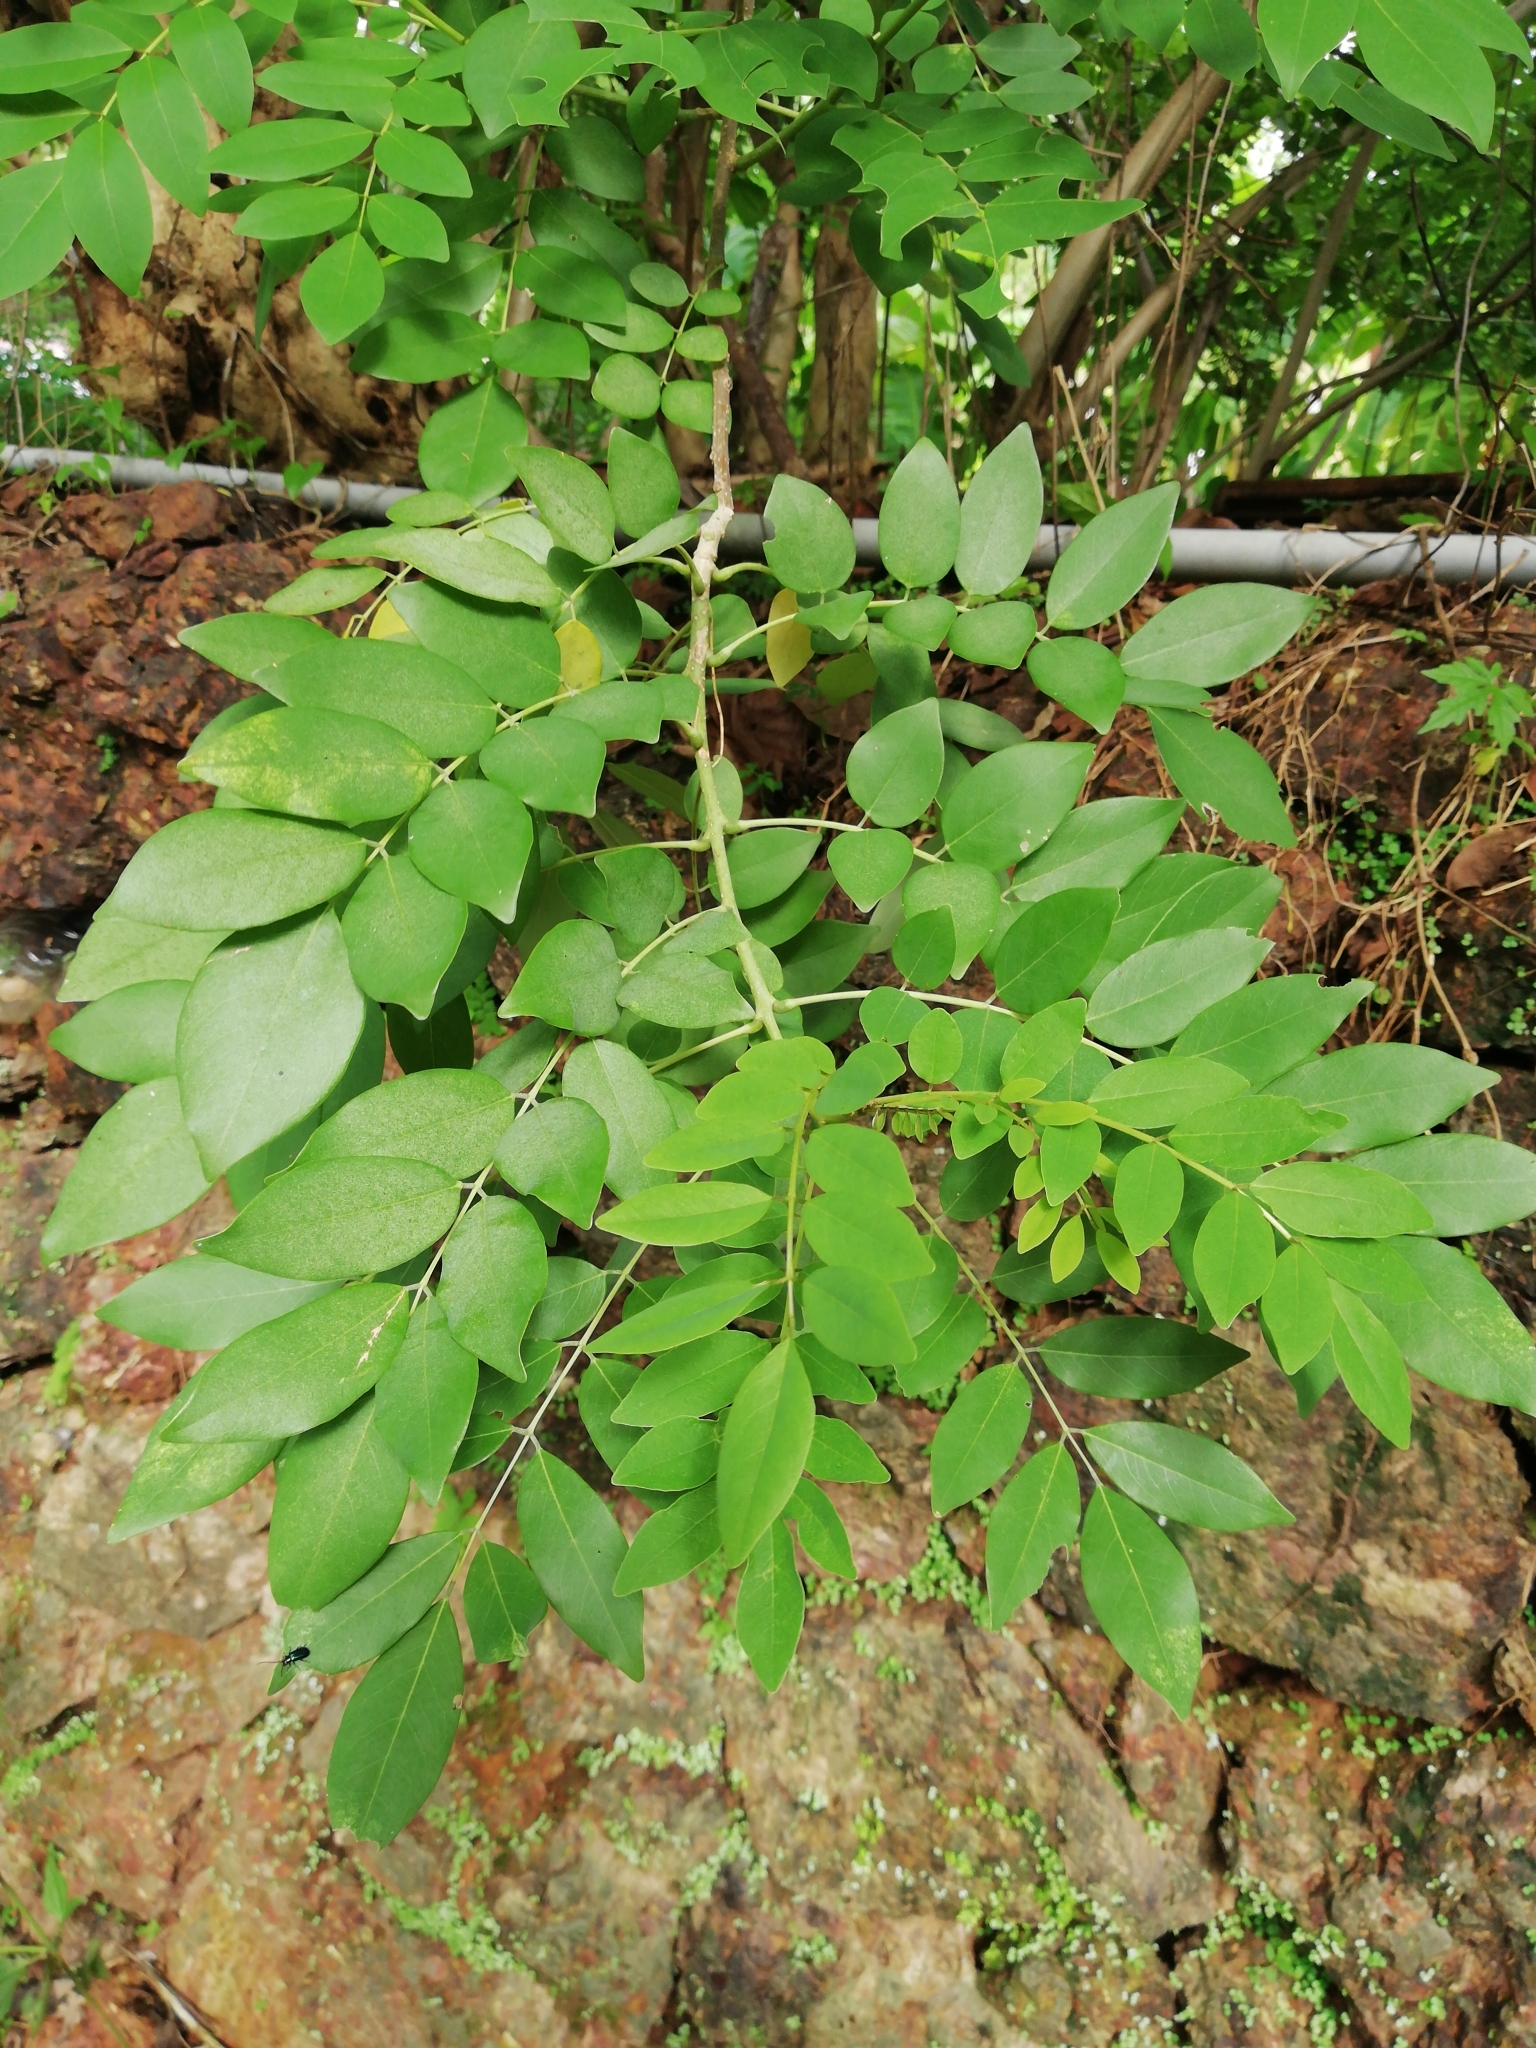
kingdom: Plantae
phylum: Tracheophyta
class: Magnoliopsida
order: Fabales
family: Fabaceae
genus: Gliricidia
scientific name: Gliricidia sepium
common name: Quickstick
